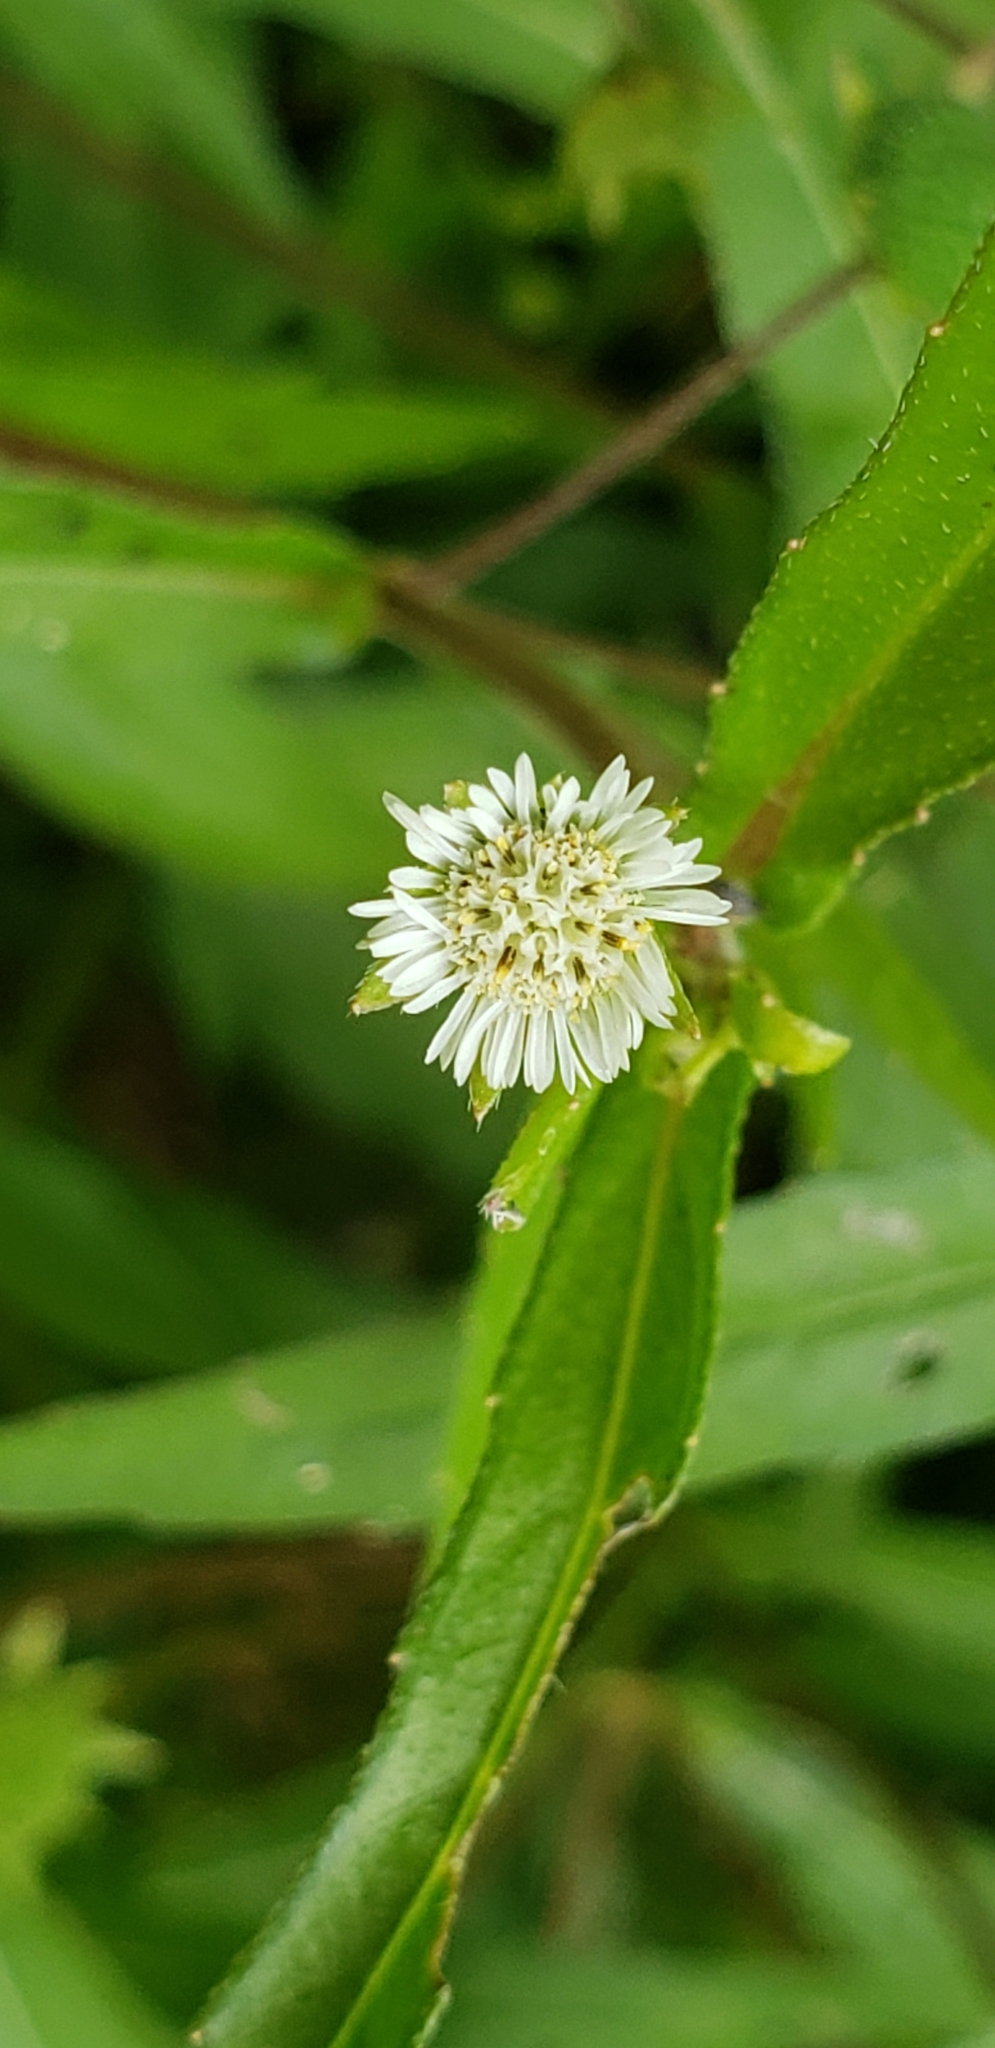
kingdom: Plantae
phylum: Tracheophyta
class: Magnoliopsida
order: Asterales
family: Asteraceae
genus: Eclipta
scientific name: Eclipta prostrata
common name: False daisy
